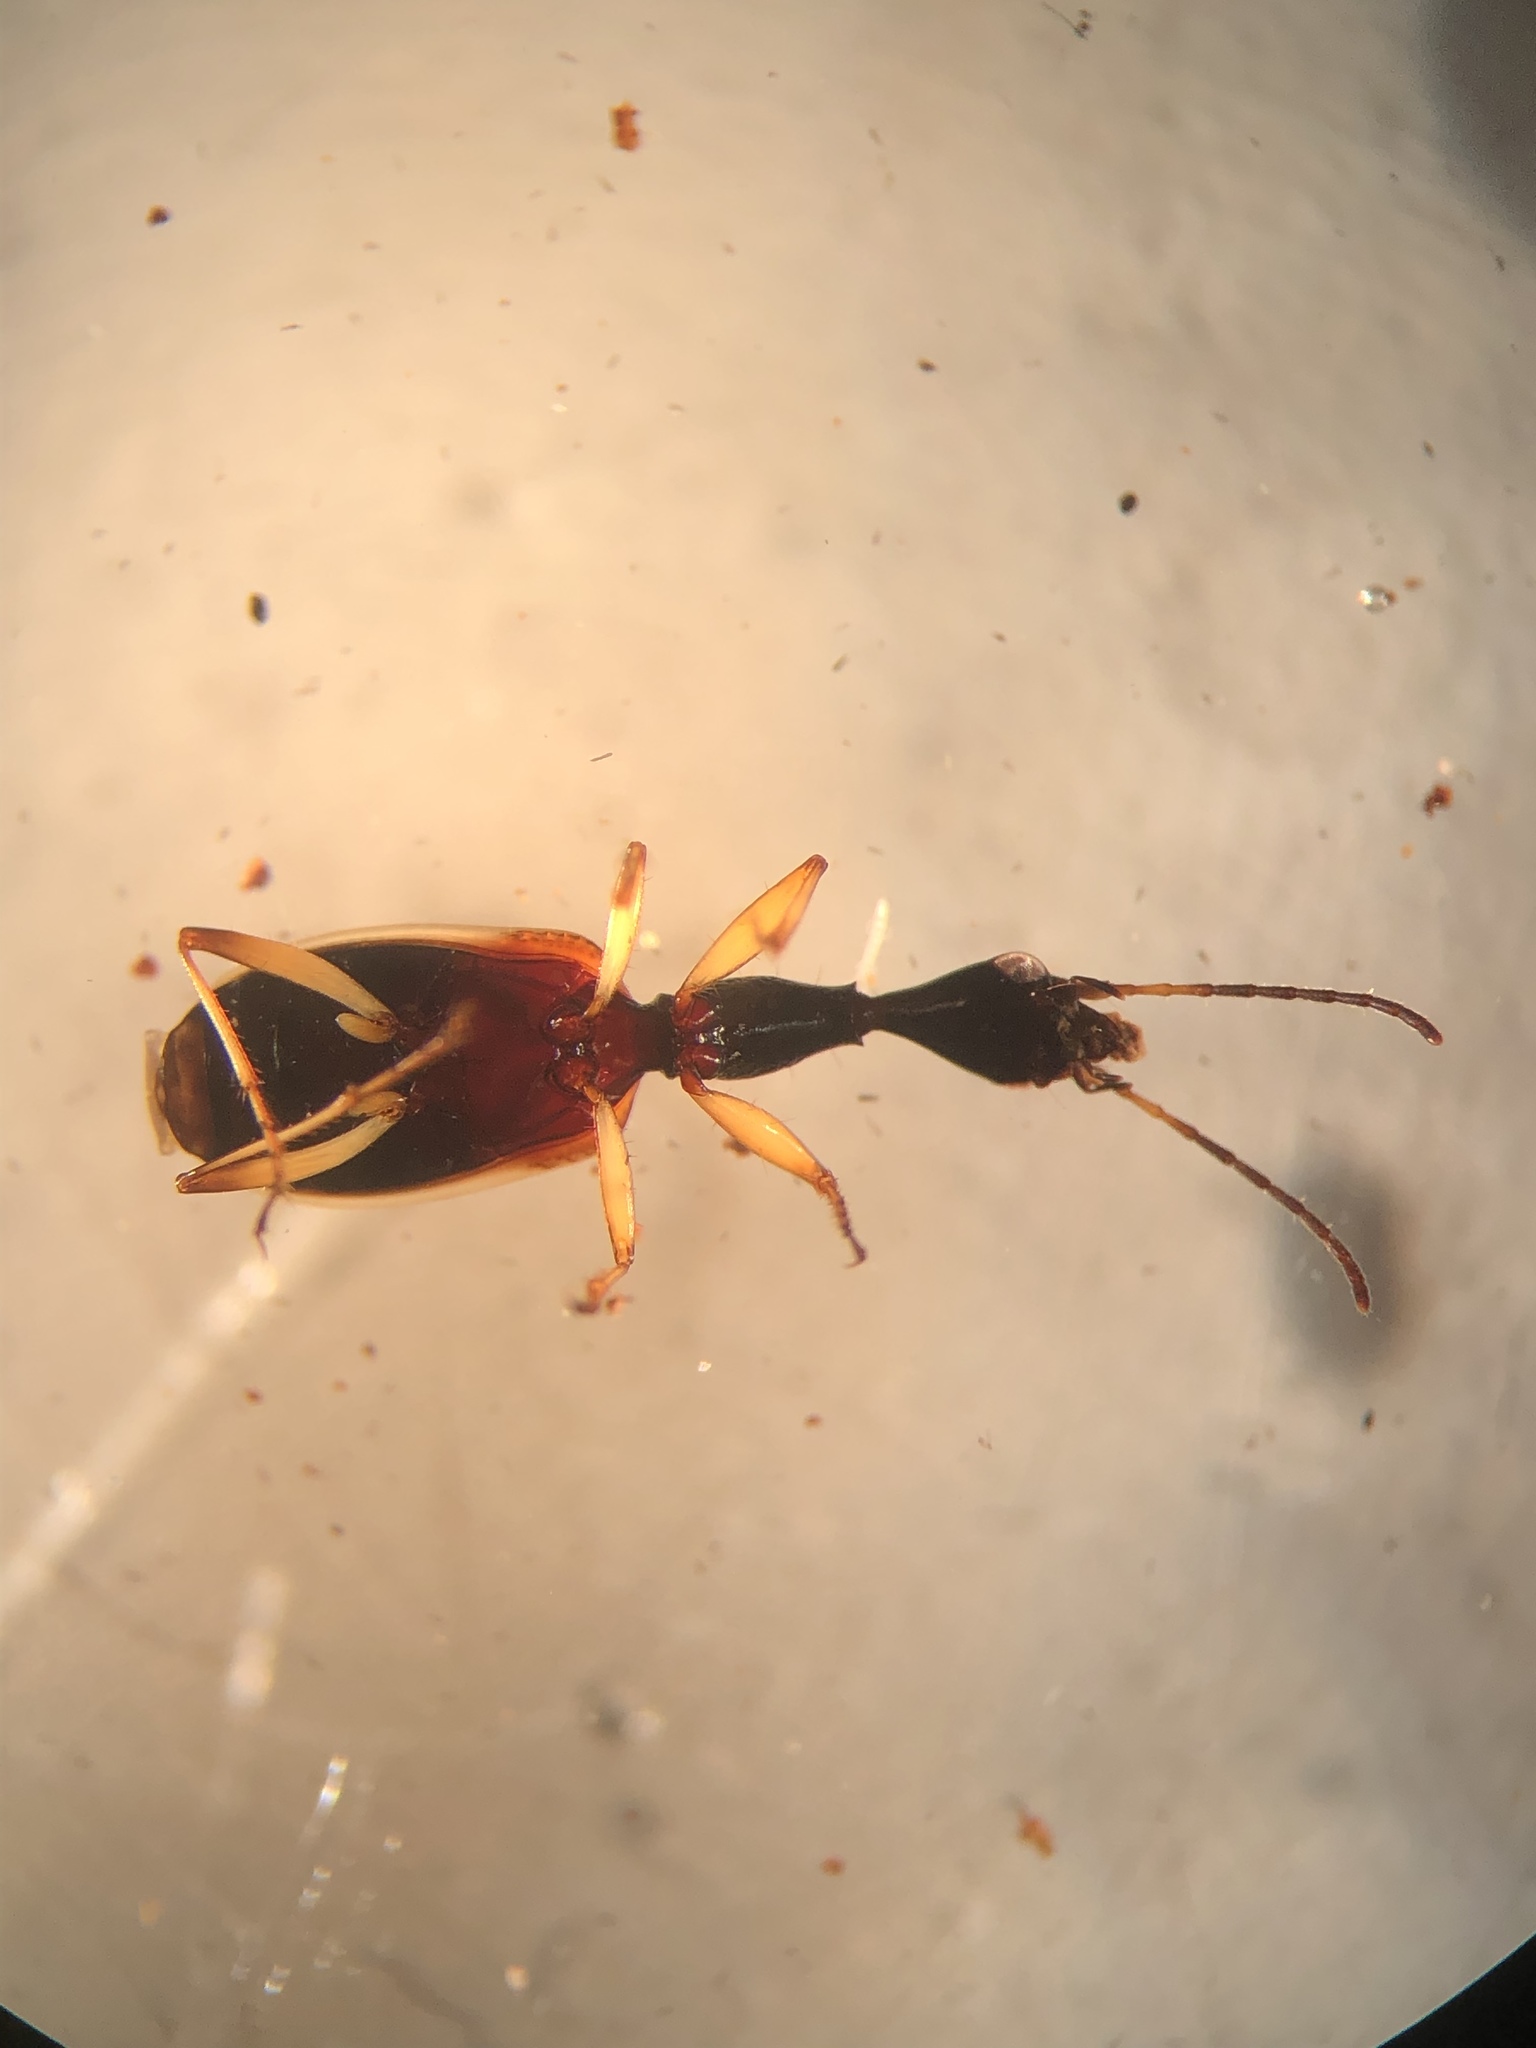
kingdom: Animalia
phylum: Arthropoda
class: Insecta
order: Coleoptera
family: Carabidae
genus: Colliuris
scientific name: Colliuris pensylvanica
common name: Long-necked ground beetle
